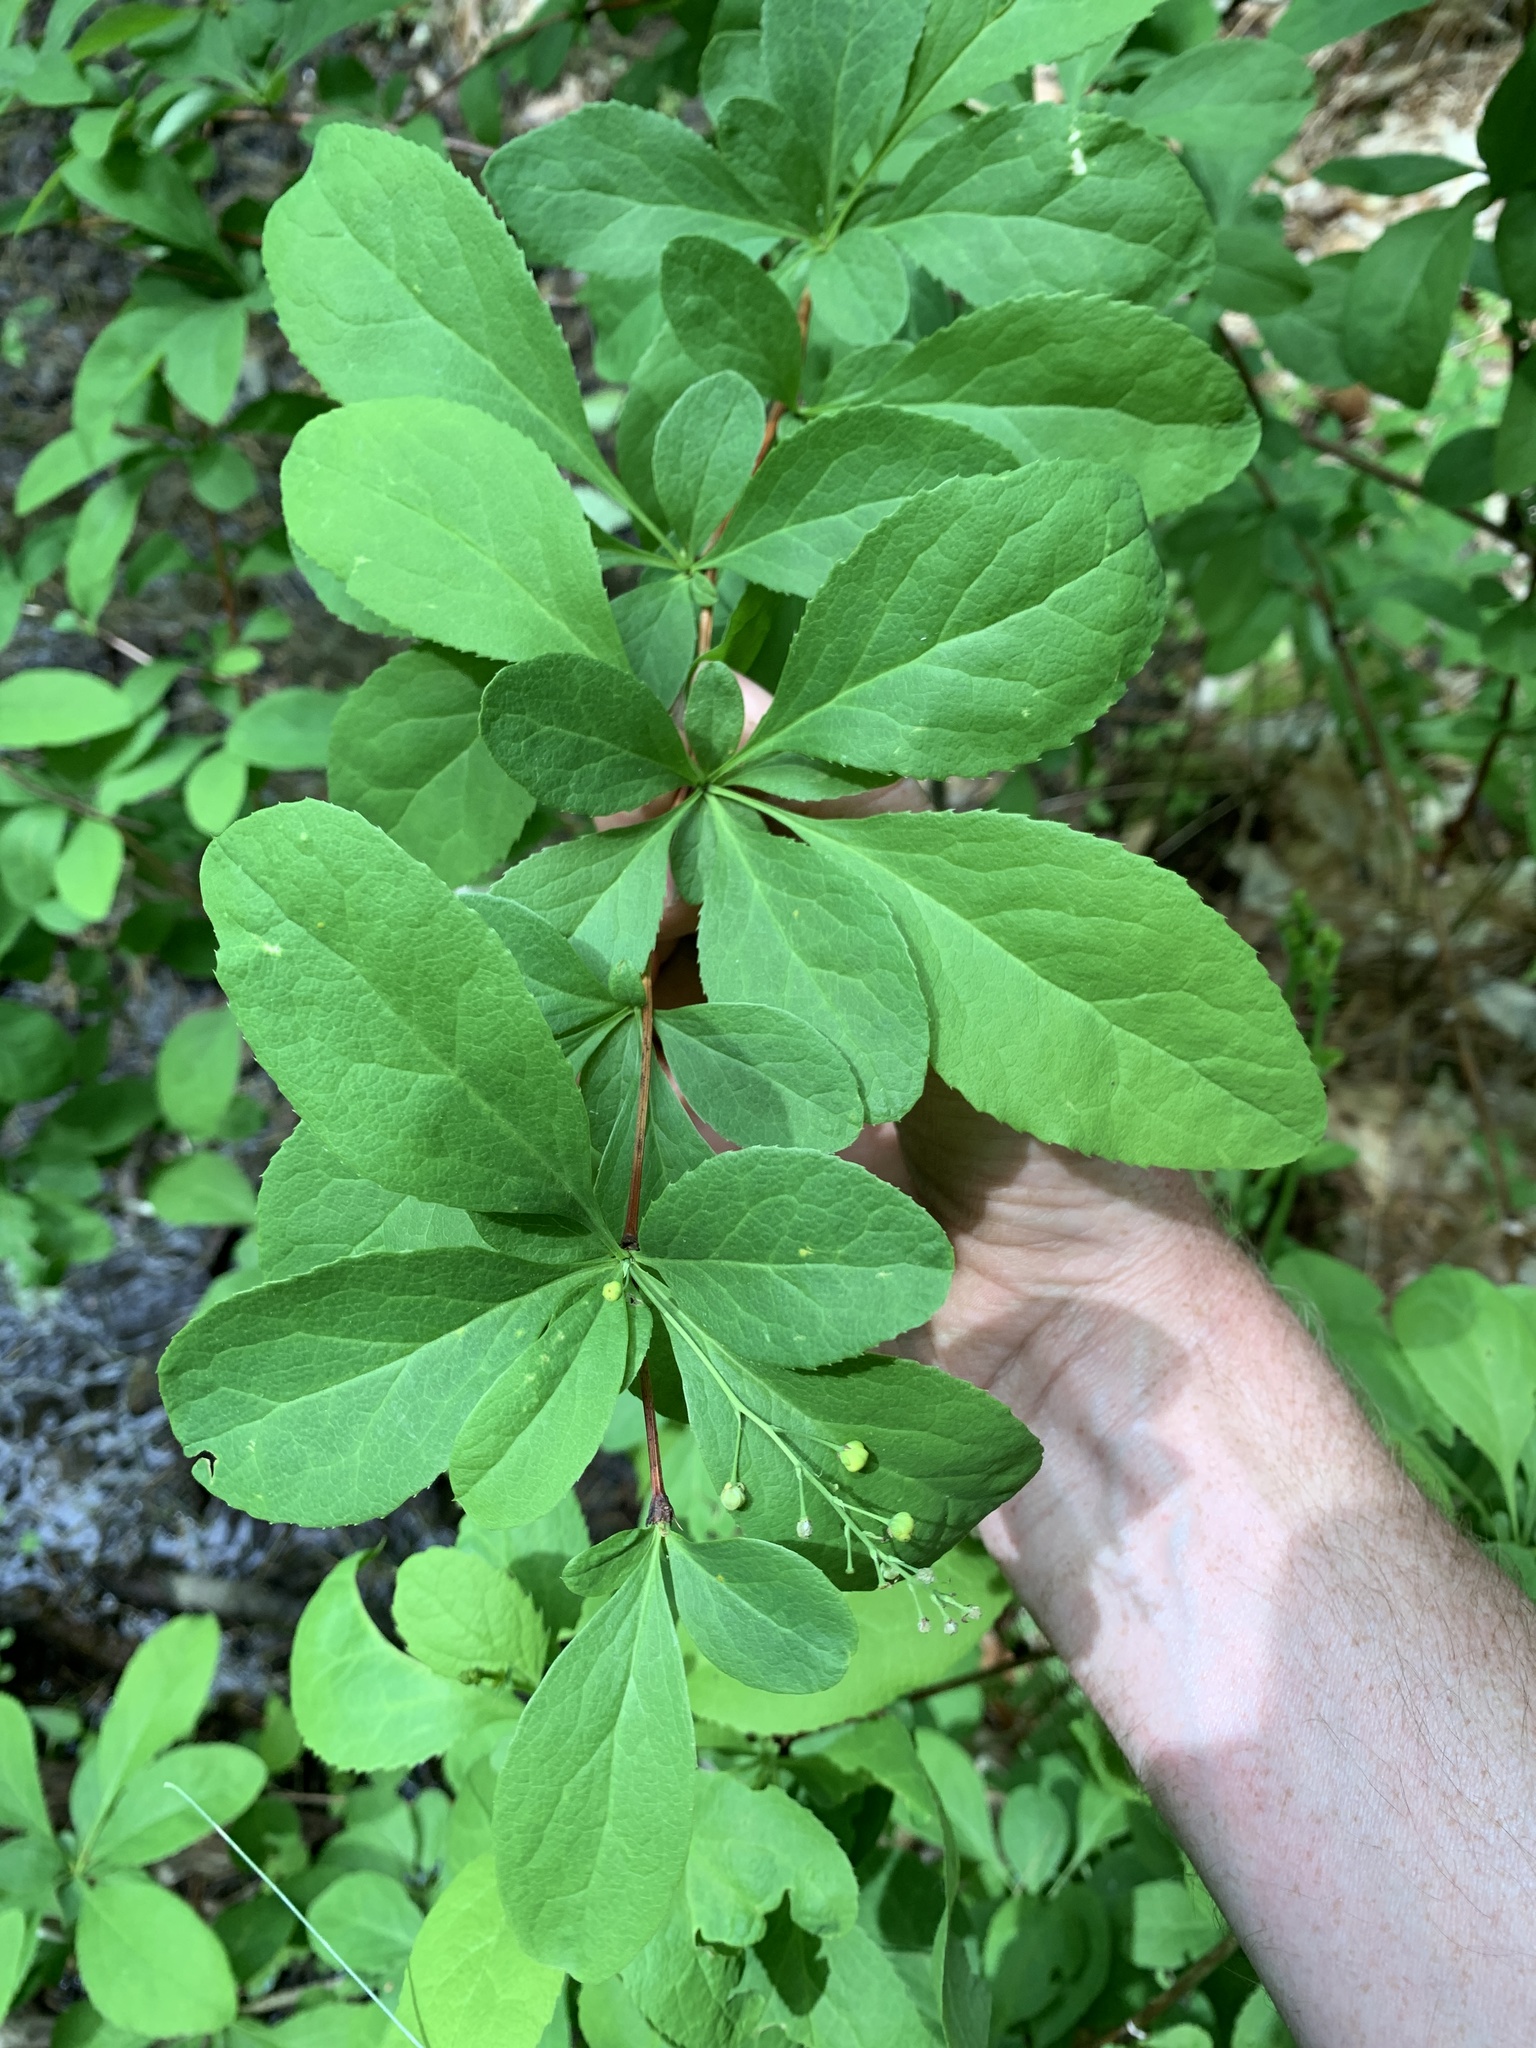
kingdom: Plantae
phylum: Tracheophyta
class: Magnoliopsida
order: Ranunculales
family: Berberidaceae
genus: Berberis
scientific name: Berberis vulgaris
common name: Barberry
